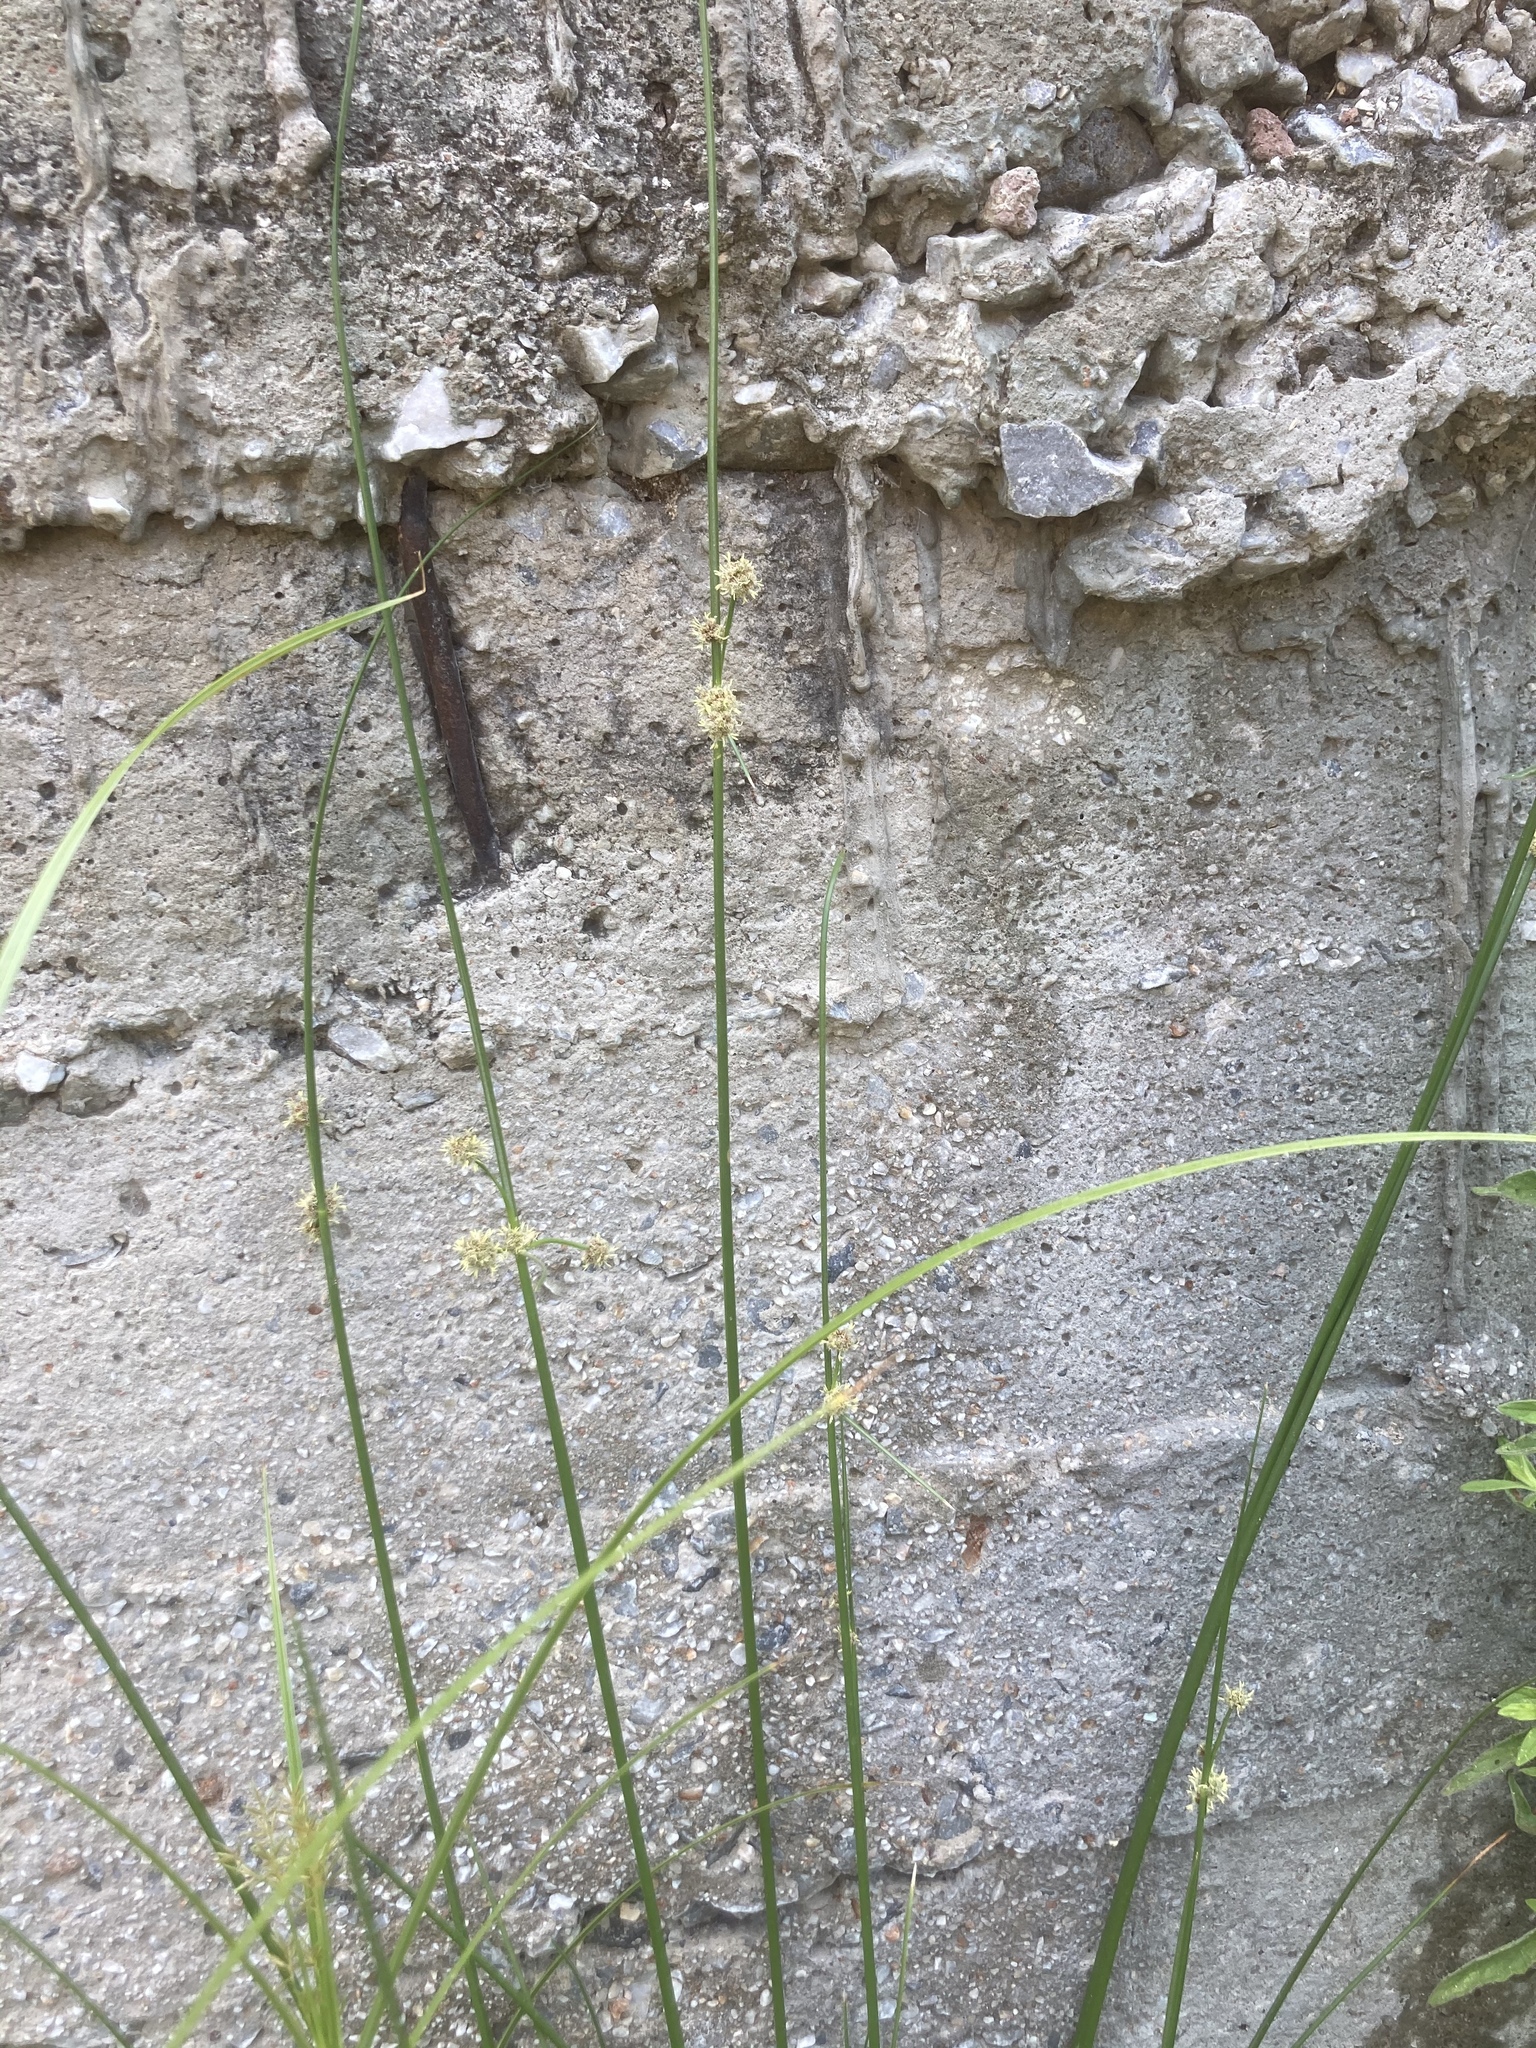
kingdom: Plantae
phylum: Tracheophyta
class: Liliopsida
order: Poales
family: Cyperaceae
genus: Scirpoides
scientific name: Scirpoides holoschoenus
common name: Round-headed club-rush
